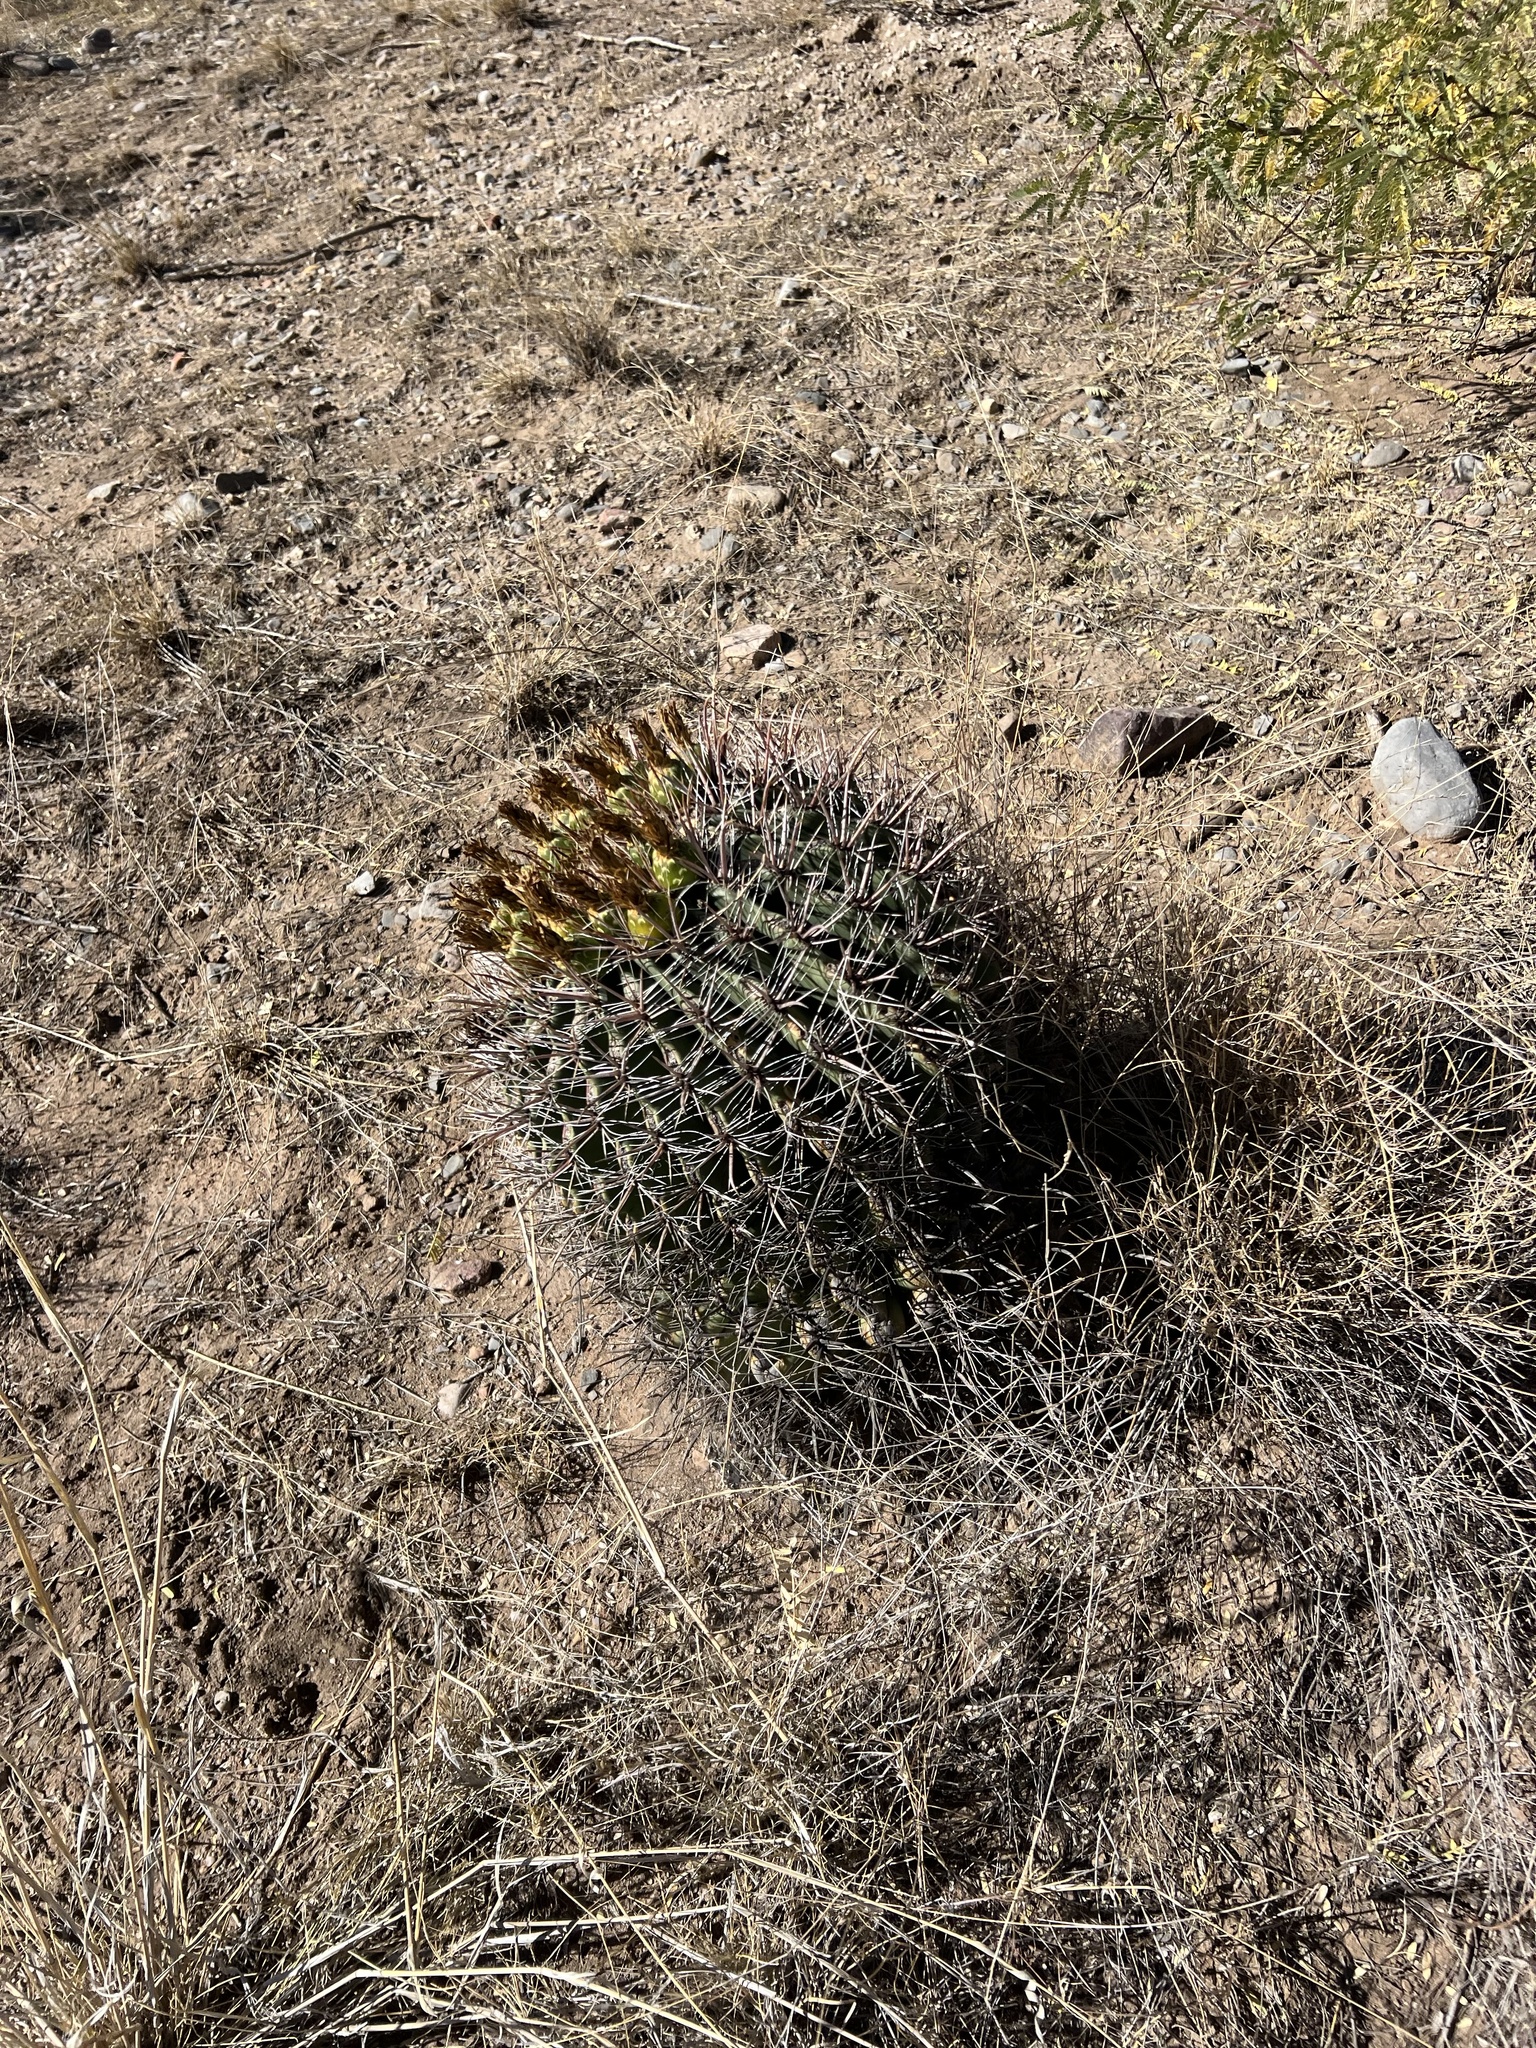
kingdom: Plantae
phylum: Tracheophyta
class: Magnoliopsida
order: Caryophyllales
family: Cactaceae
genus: Ferocactus
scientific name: Ferocactus wislizeni
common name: Candy barrel cactus
